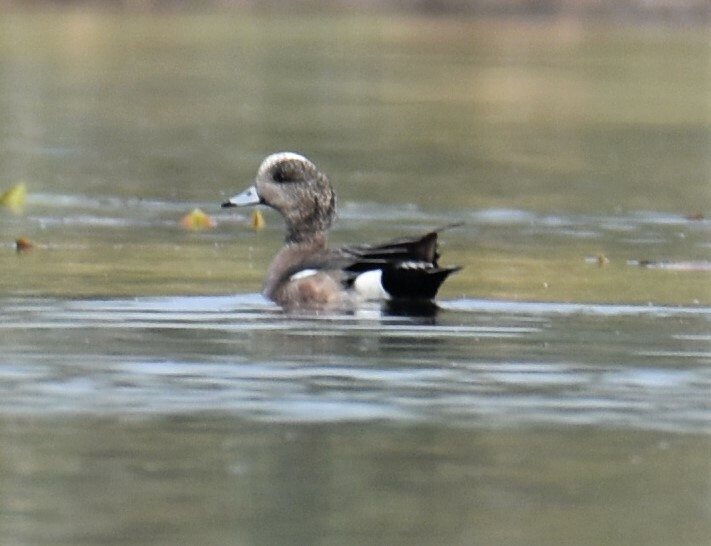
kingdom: Animalia
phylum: Chordata
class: Aves
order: Anseriformes
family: Anatidae
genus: Mareca
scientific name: Mareca americana
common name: American wigeon
